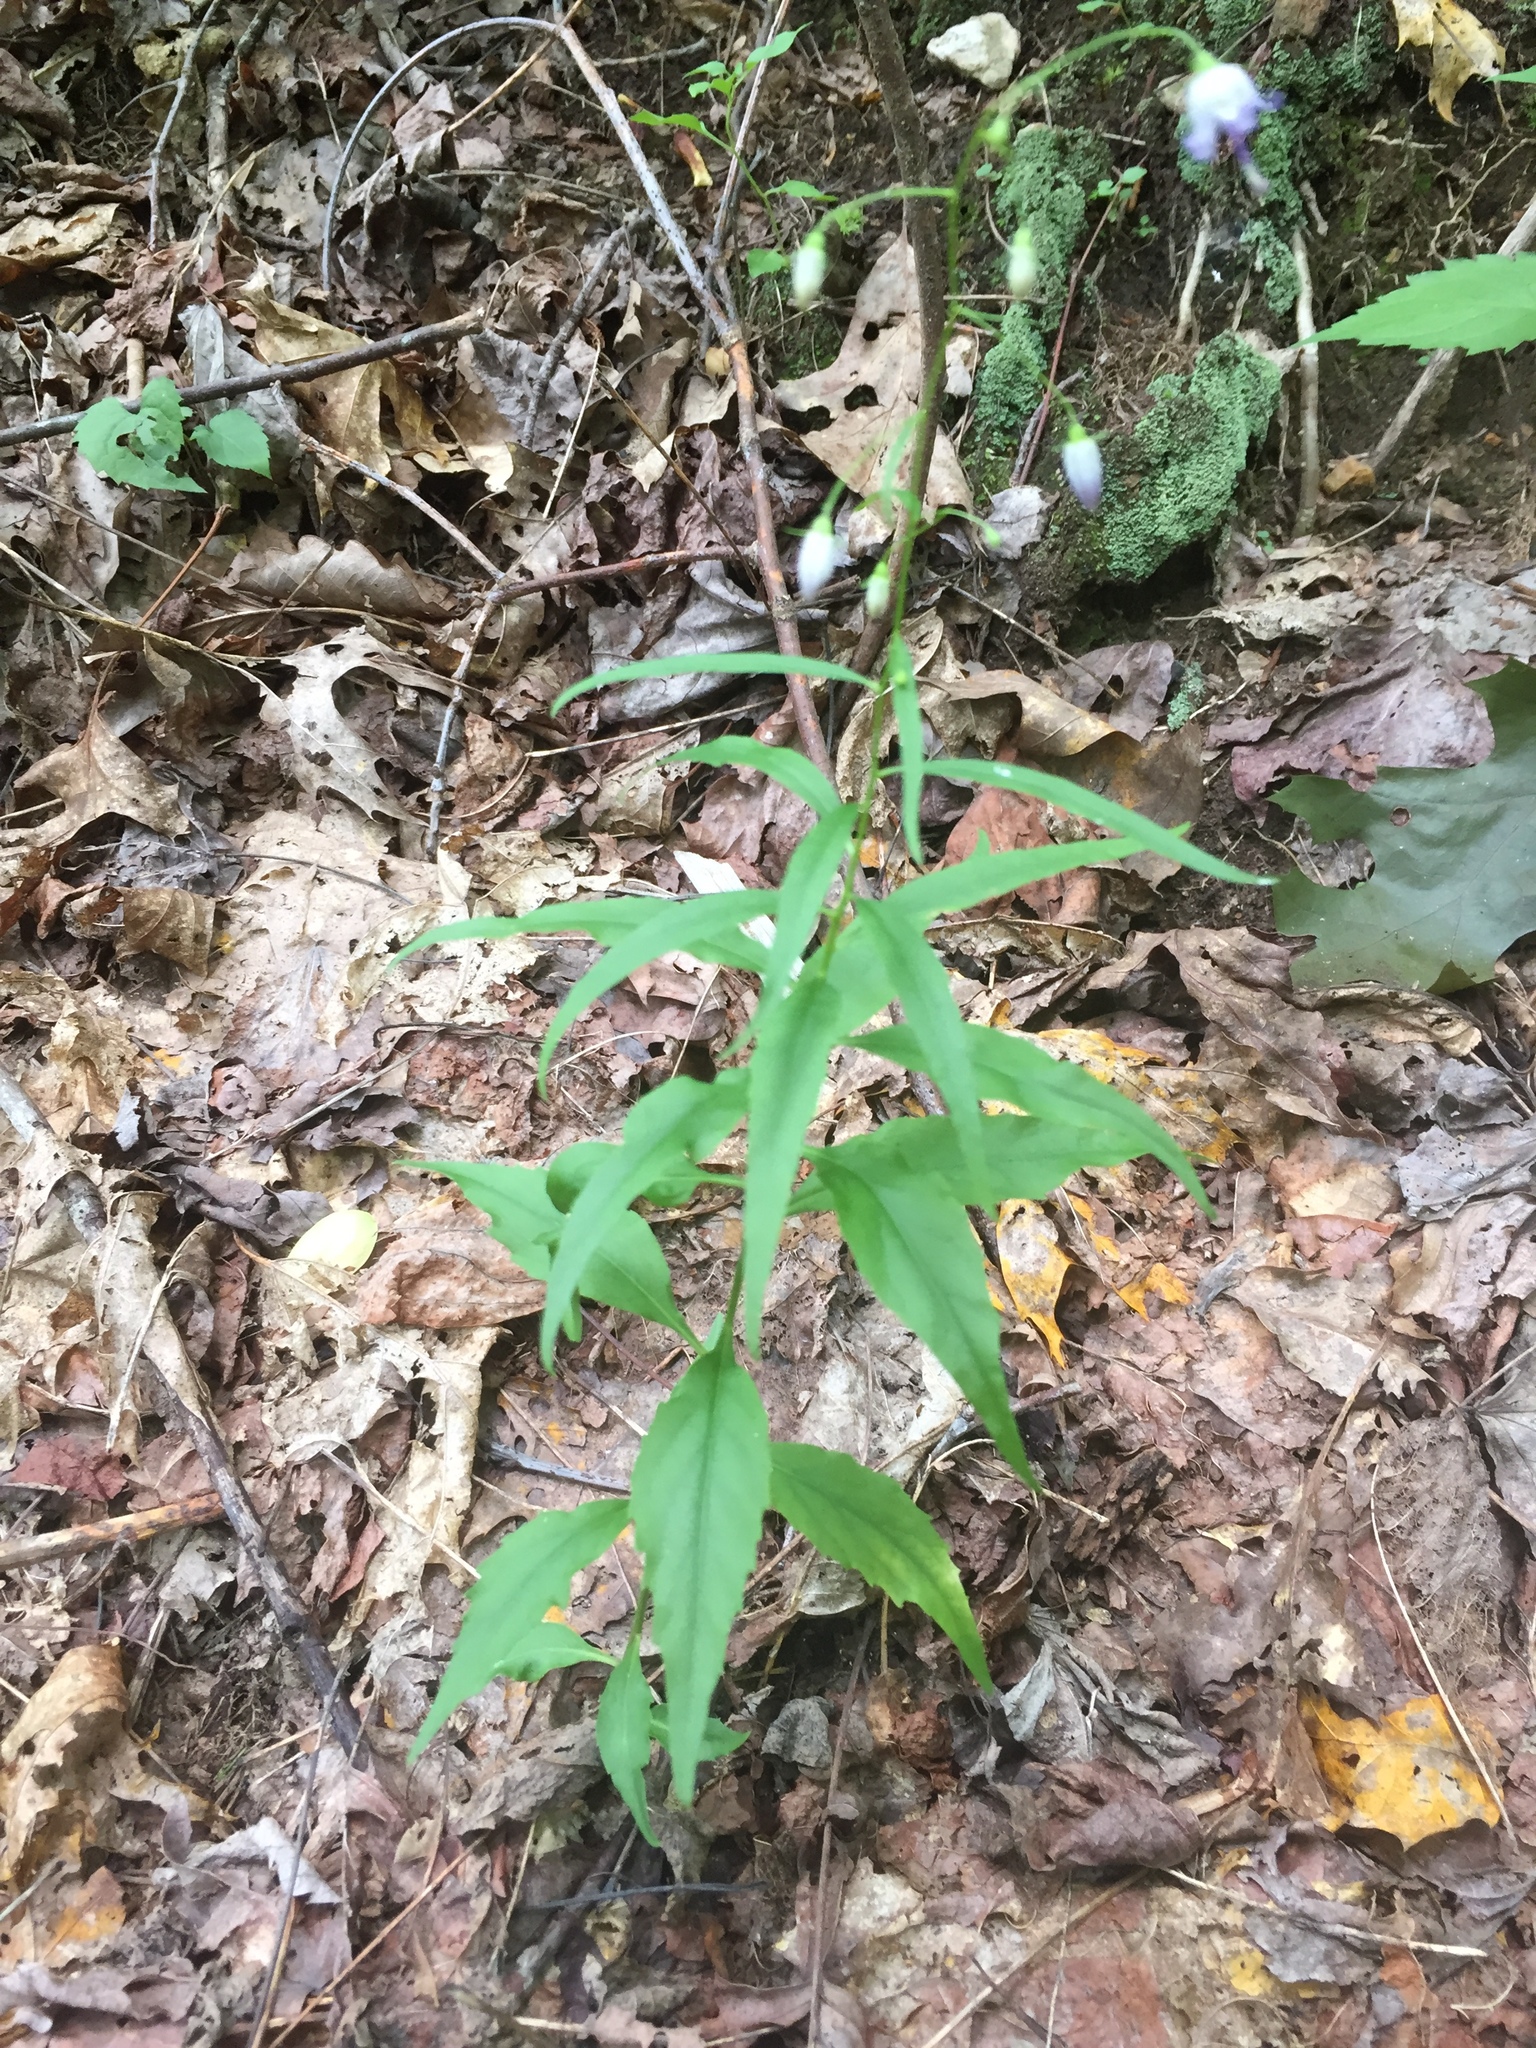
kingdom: Plantae
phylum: Tracheophyta
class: Magnoliopsida
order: Asterales
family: Campanulaceae
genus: Campanula
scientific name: Campanula divaricata
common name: Appalachian bellflower
